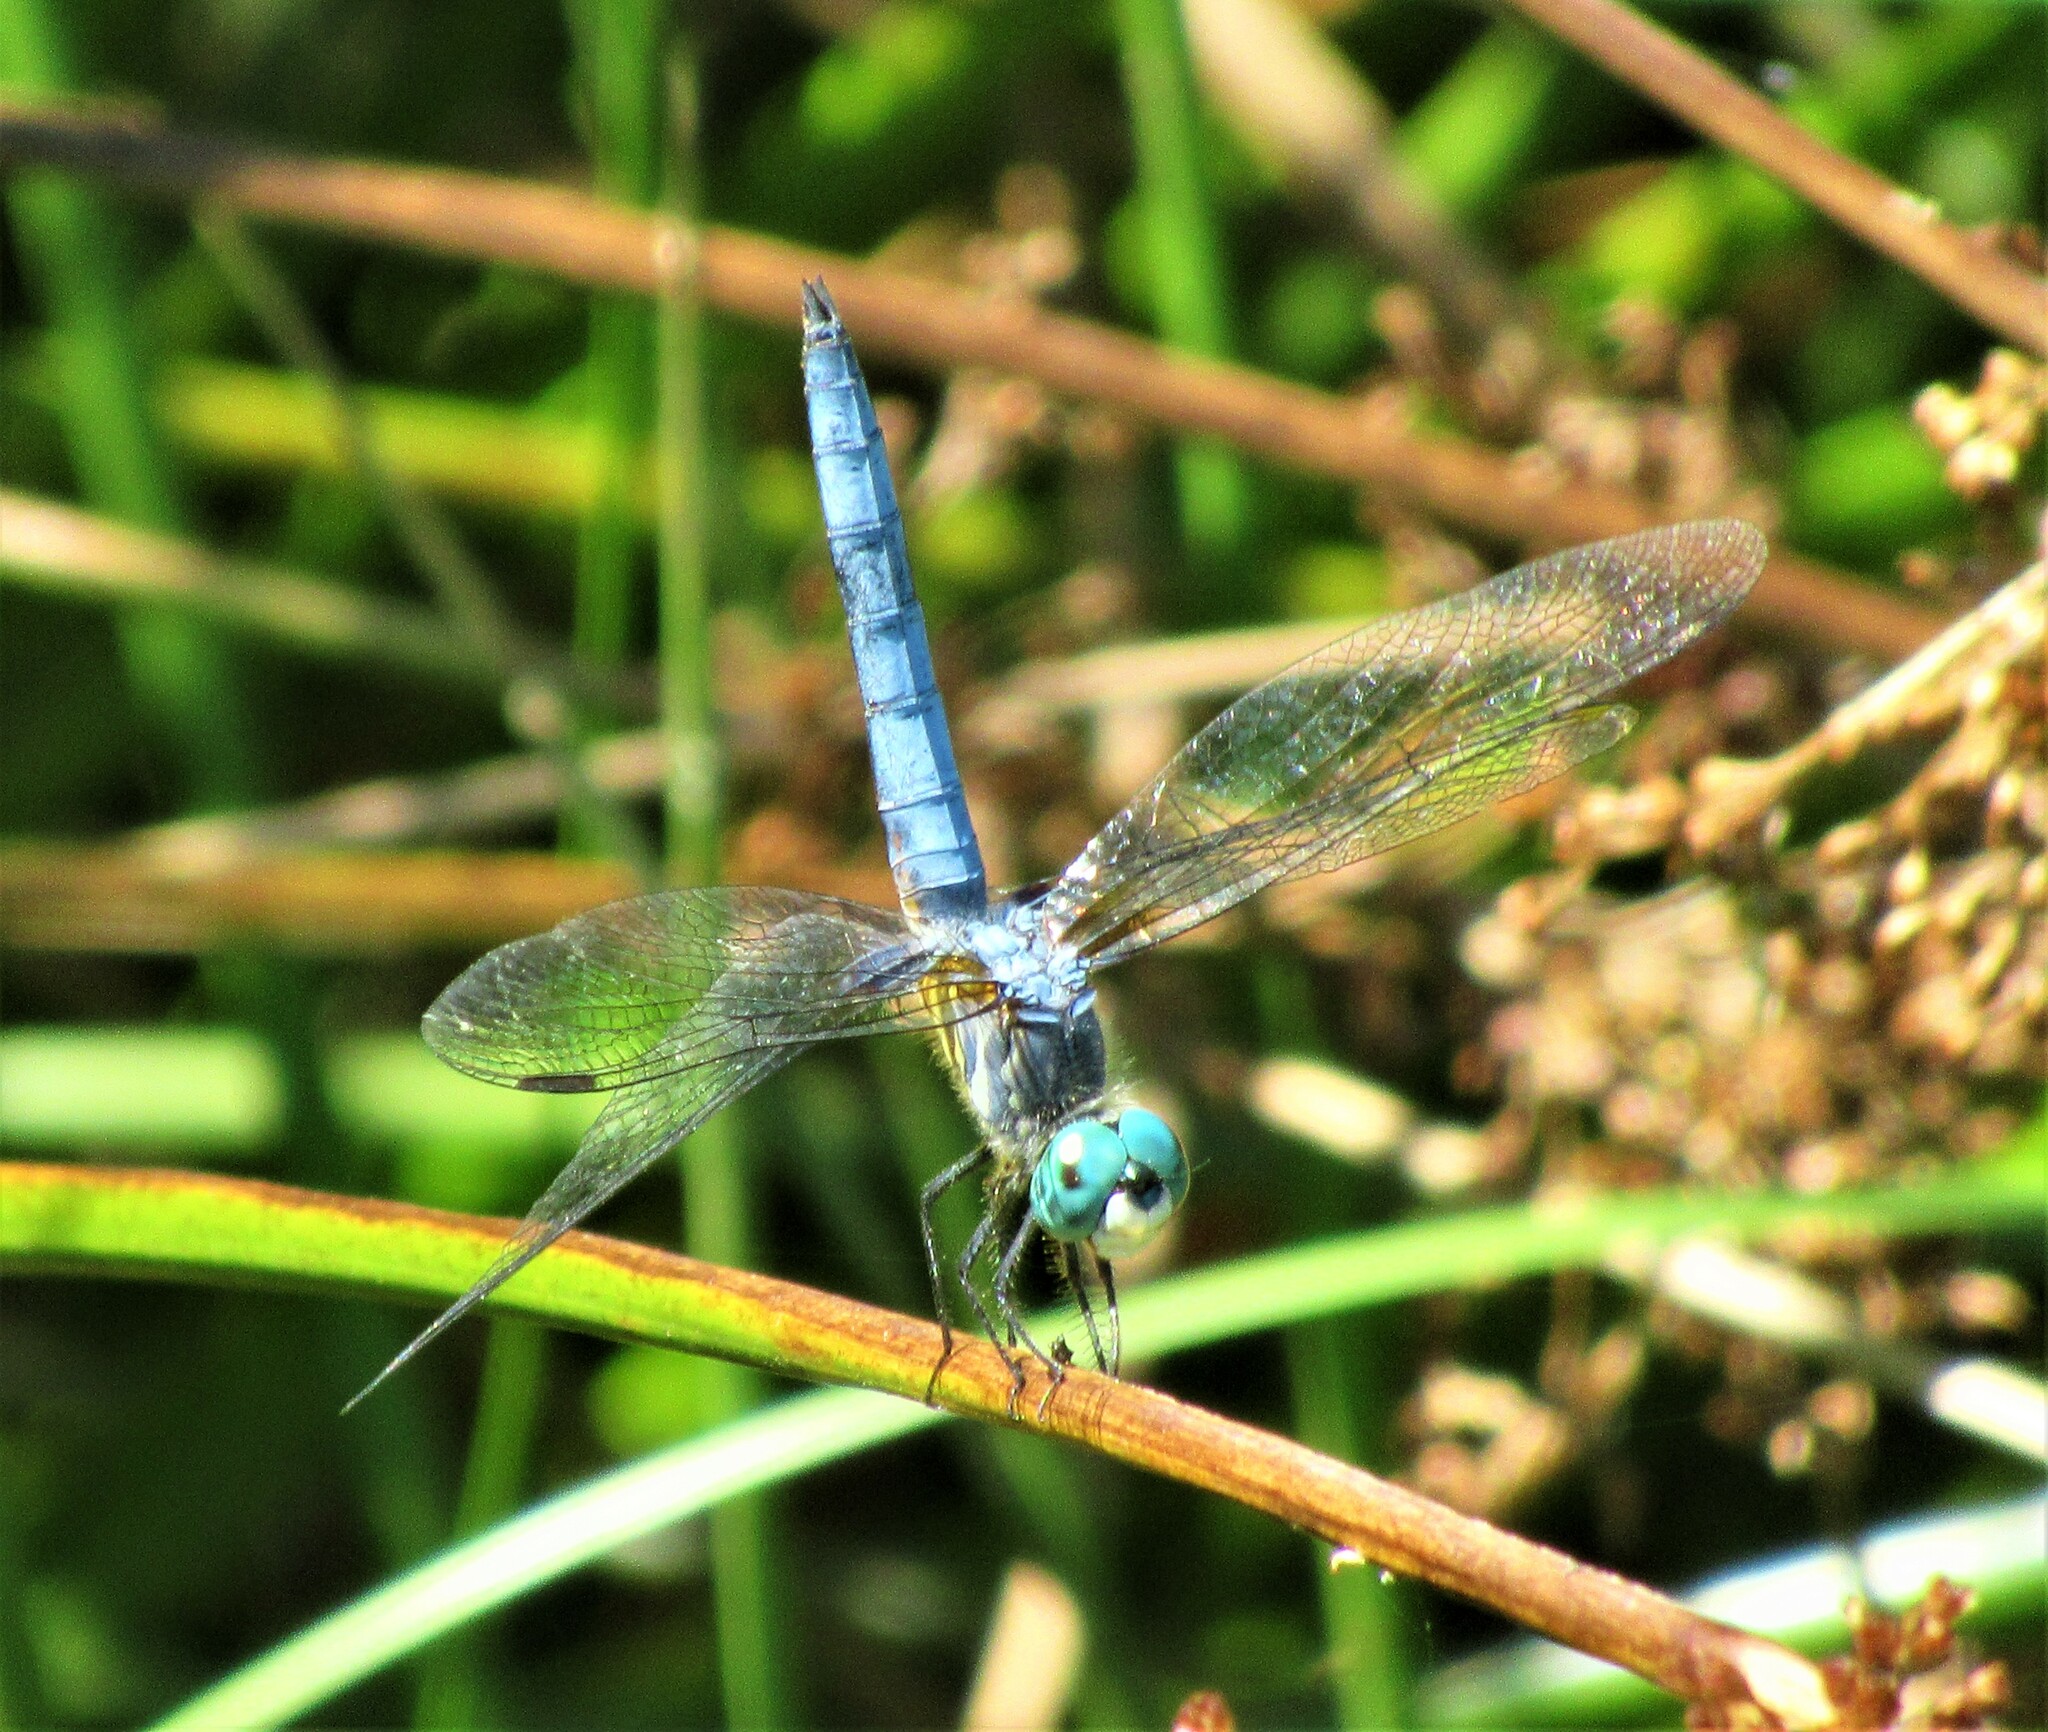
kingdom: Animalia
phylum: Arthropoda
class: Insecta
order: Odonata
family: Libellulidae
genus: Pachydiplax
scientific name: Pachydiplax longipennis
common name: Blue dasher
